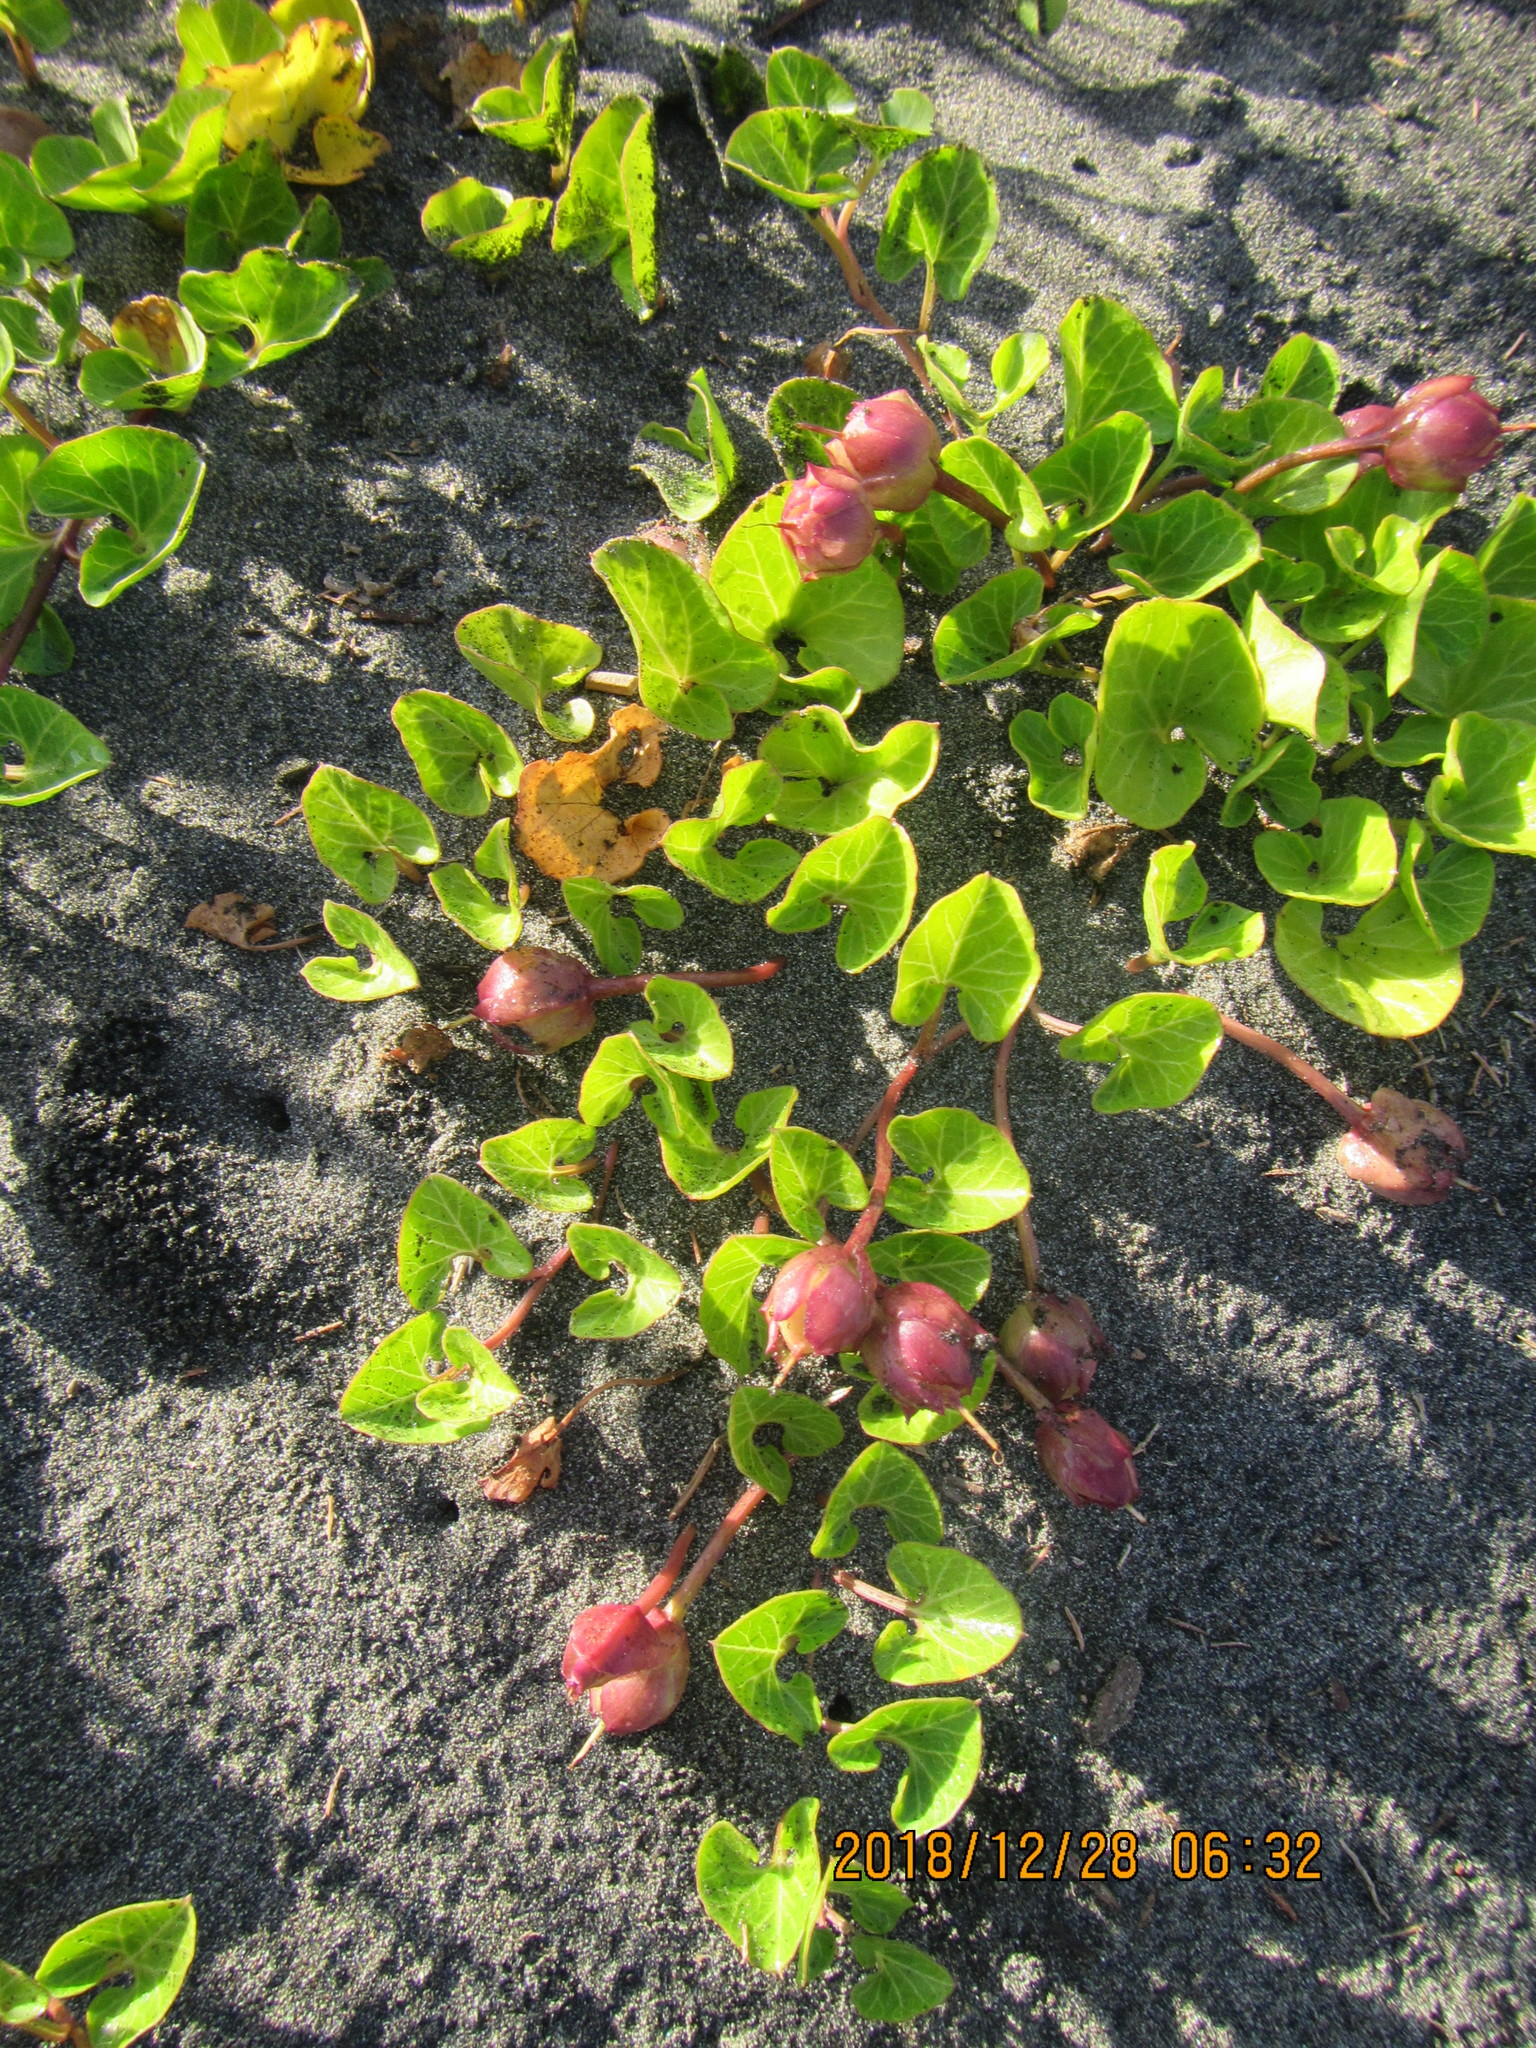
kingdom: Plantae
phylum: Tracheophyta
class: Magnoliopsida
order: Solanales
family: Convolvulaceae
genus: Calystegia
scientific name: Calystegia soldanella
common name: Sea bindweed
